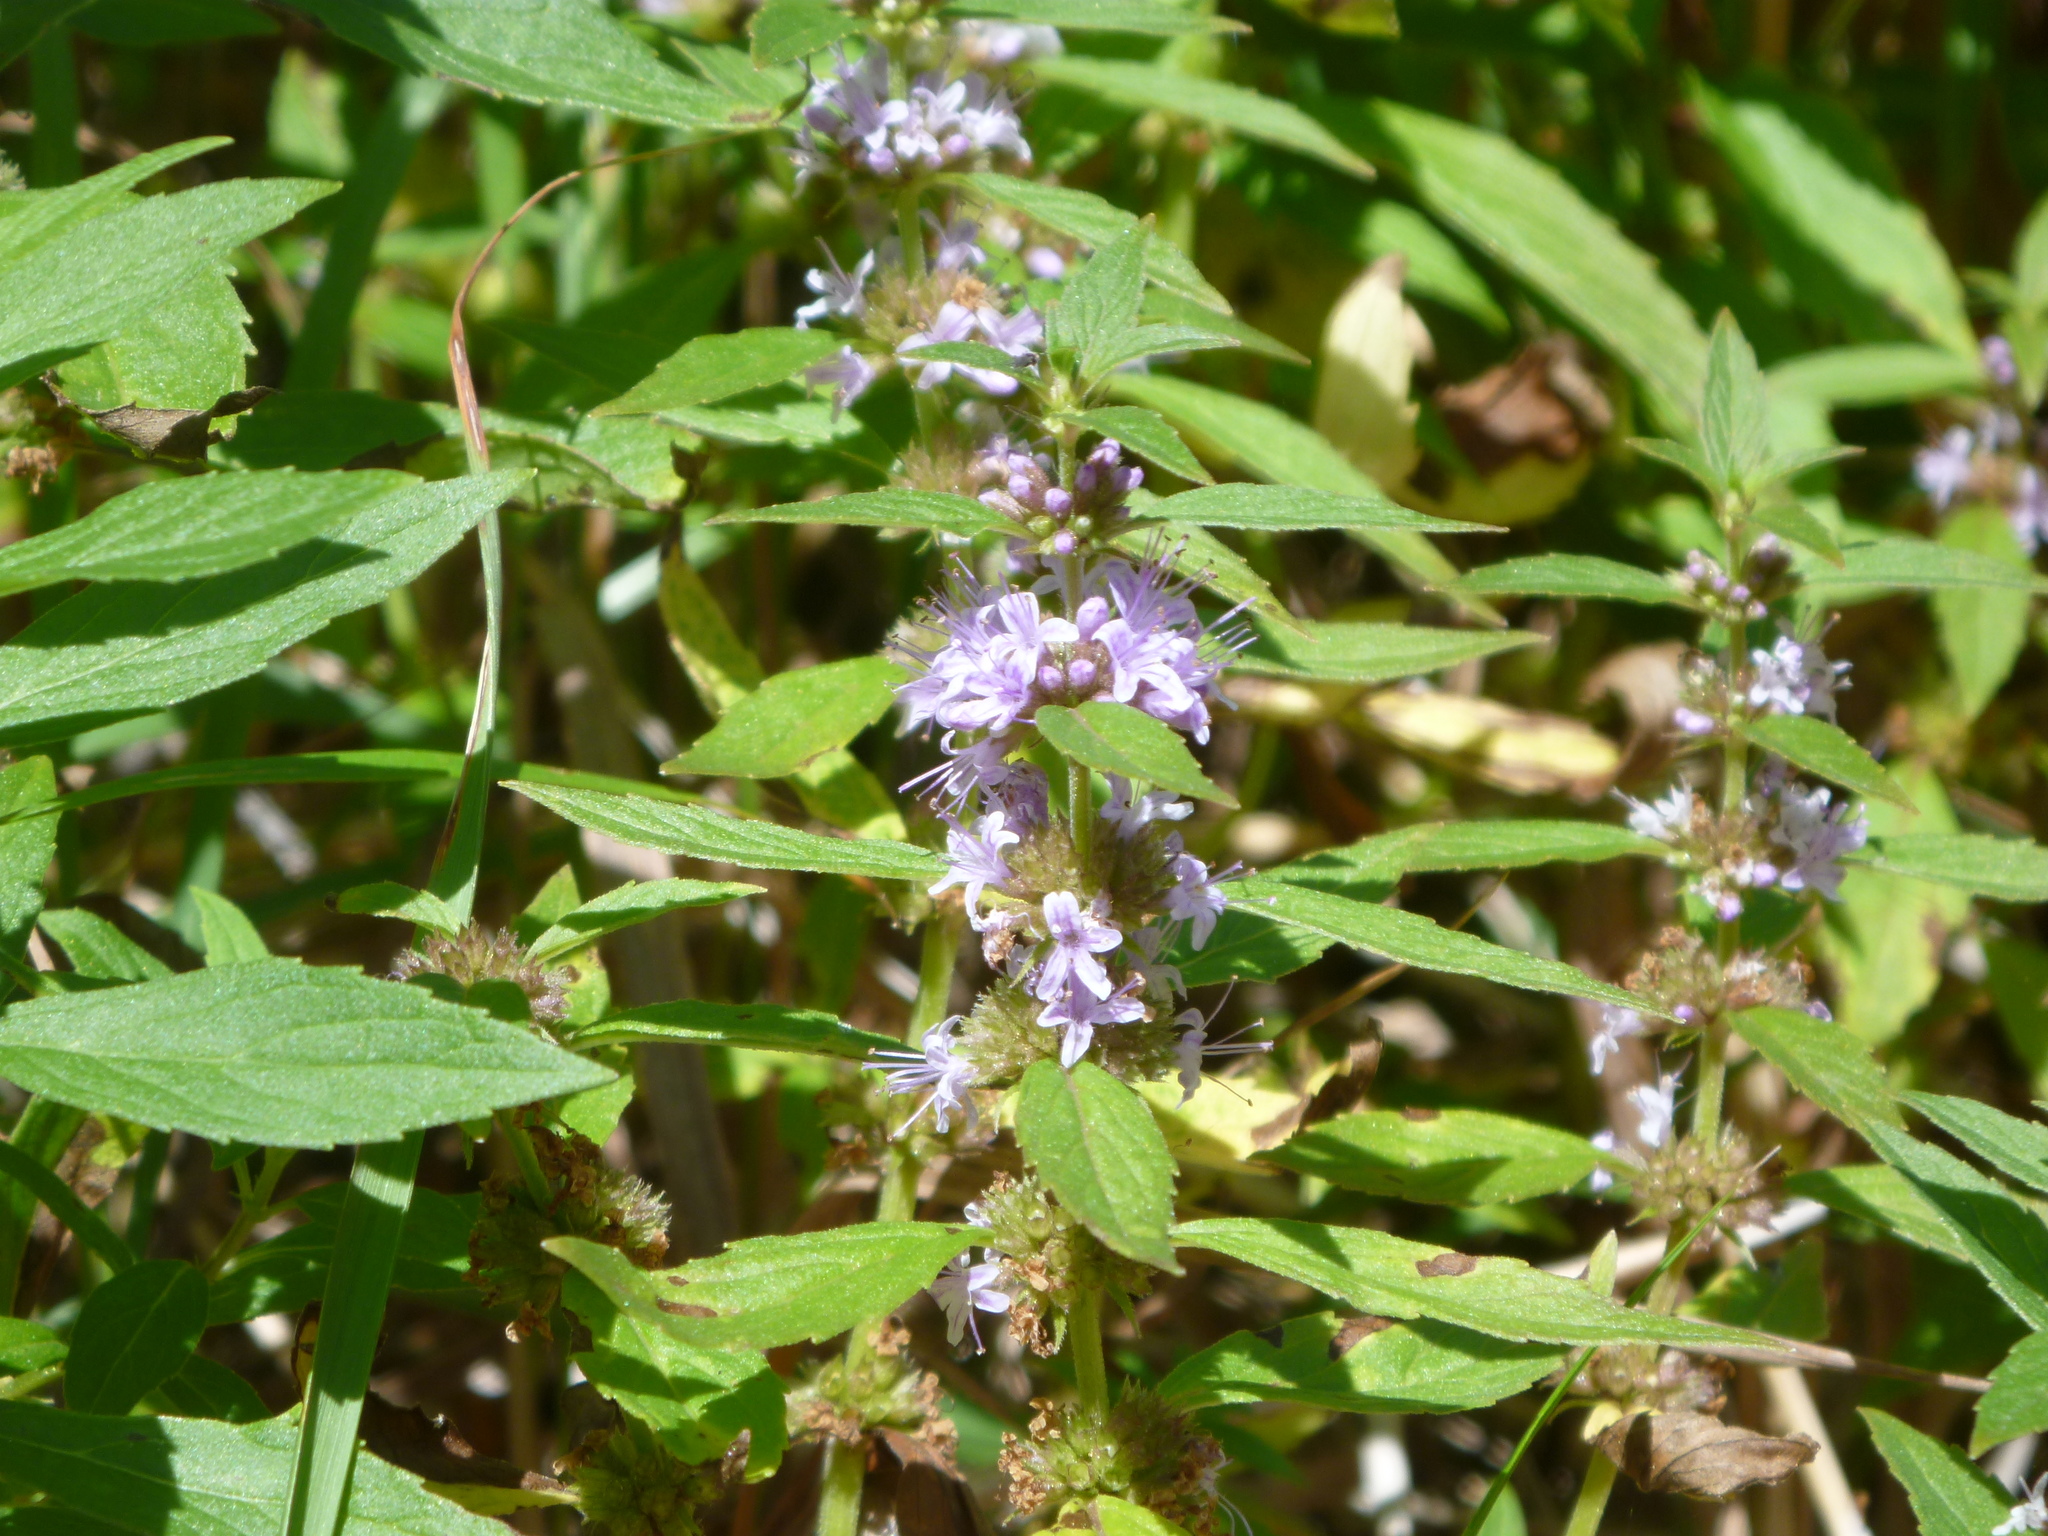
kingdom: Plantae
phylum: Tracheophyta
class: Magnoliopsida
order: Lamiales
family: Lamiaceae
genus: Mentha
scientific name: Mentha canadensis
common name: American corn mint
